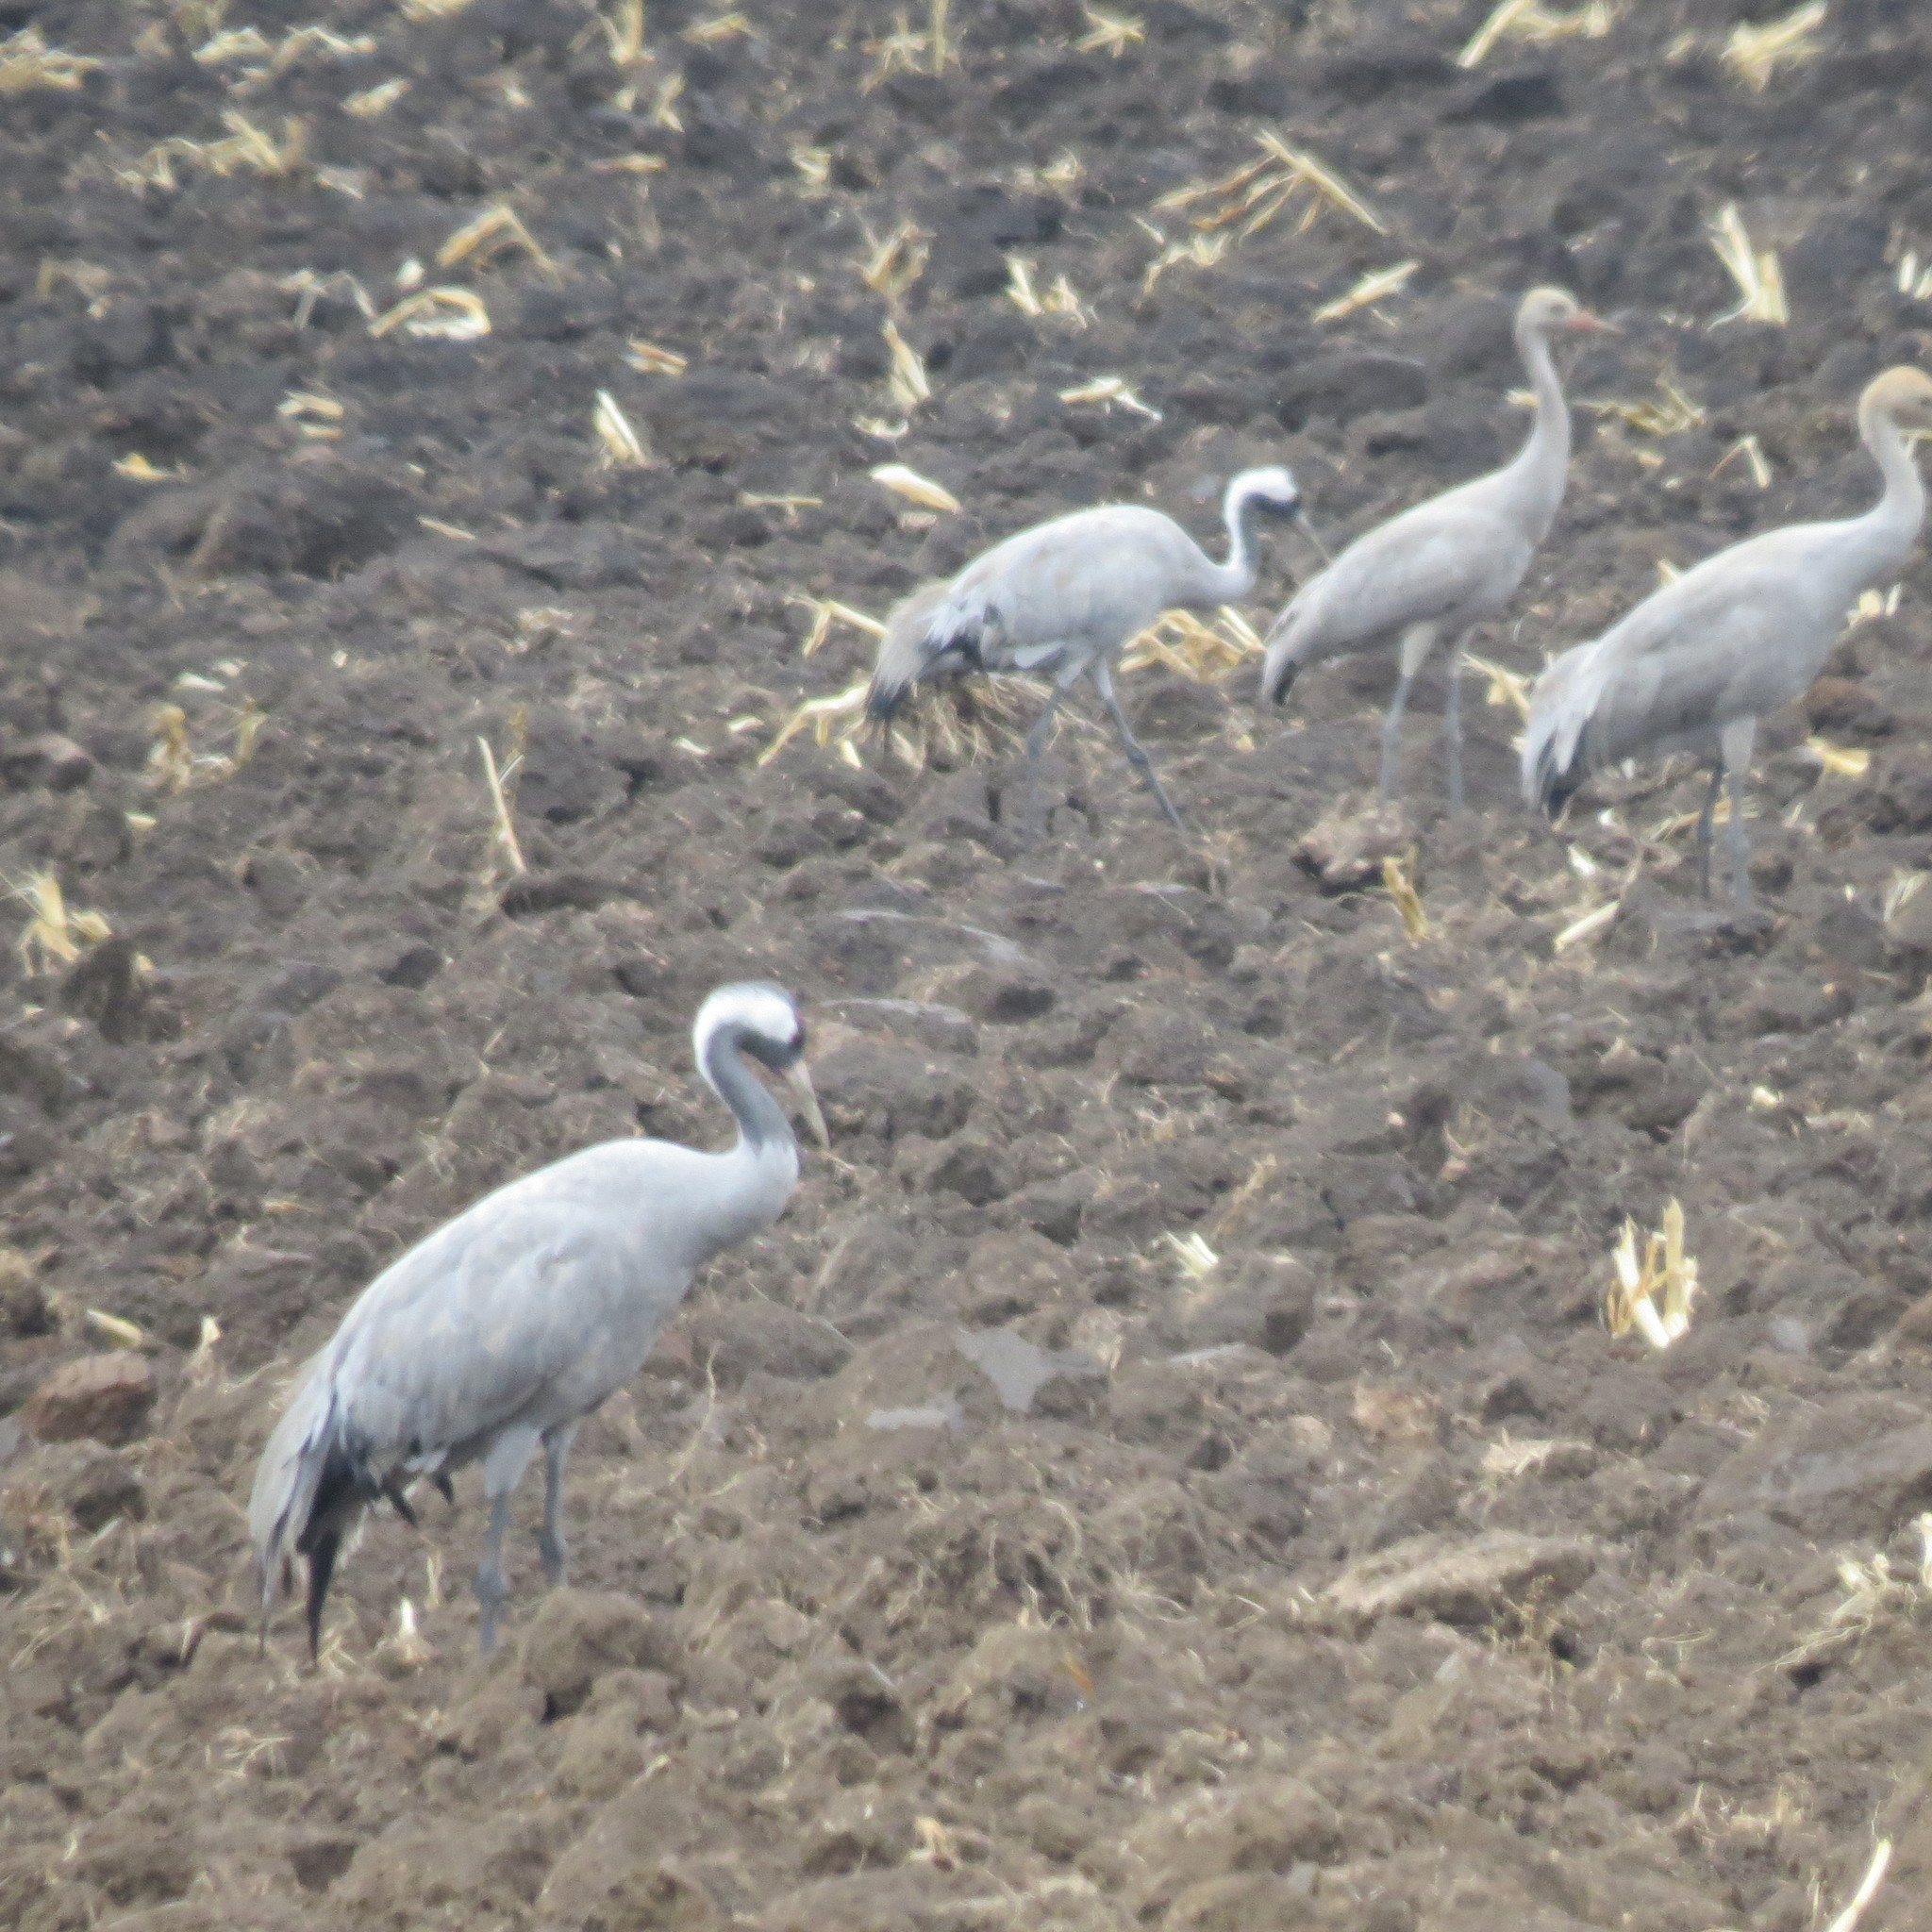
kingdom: Animalia
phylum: Chordata
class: Aves
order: Gruiformes
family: Gruidae
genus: Grus
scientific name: Grus grus
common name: Common crane
